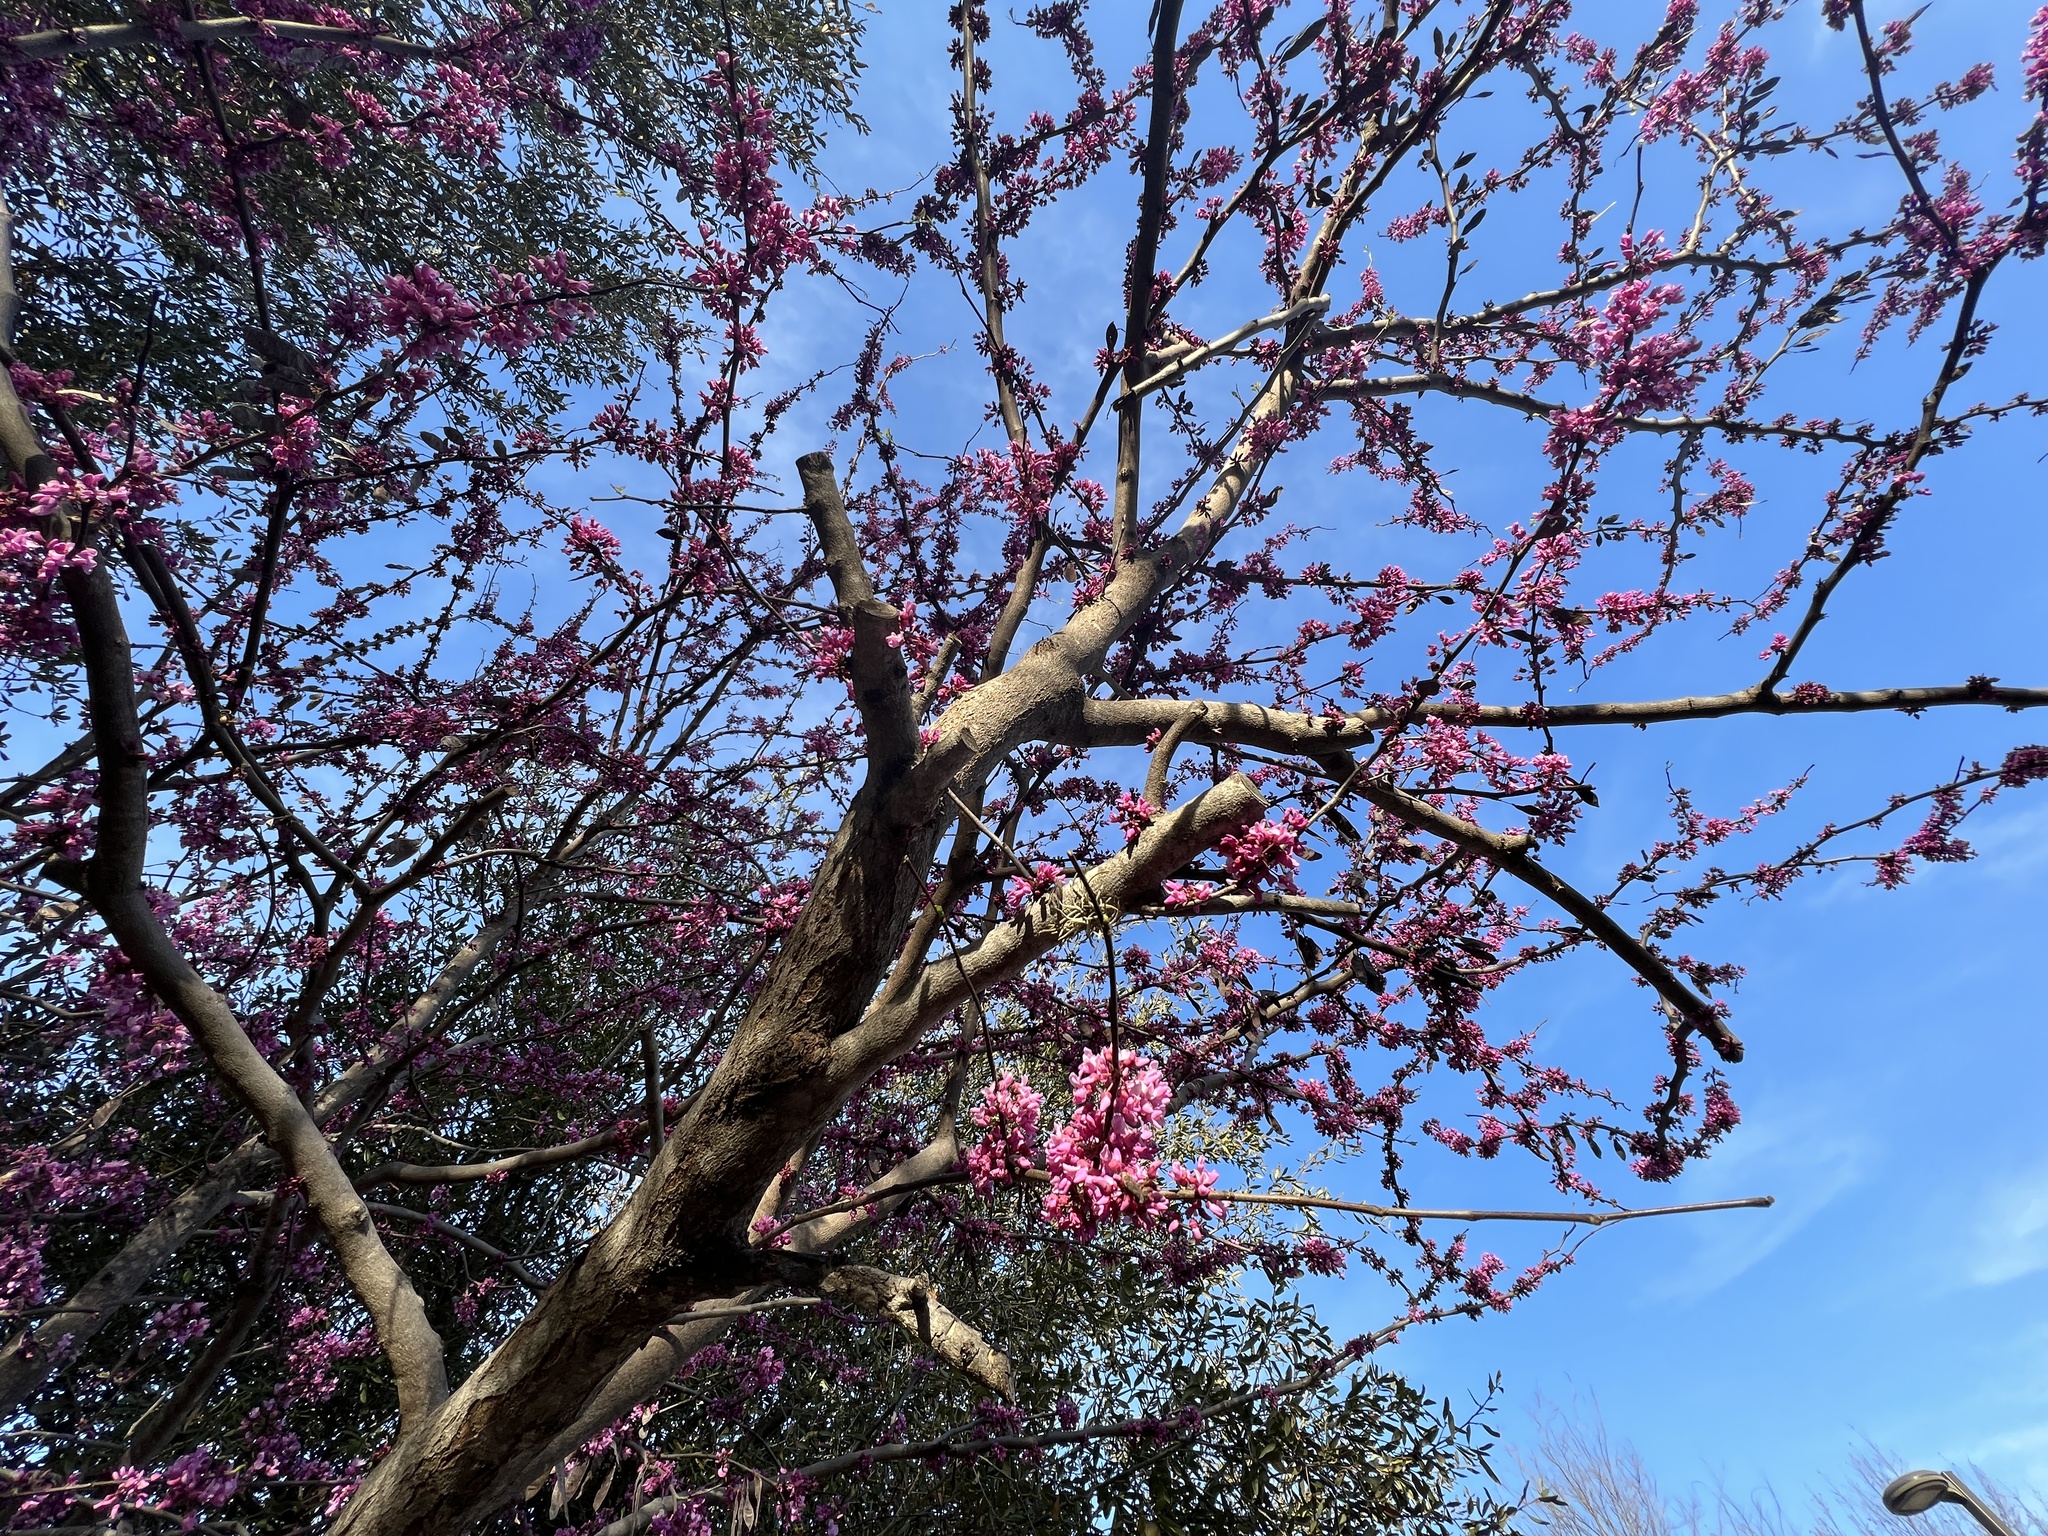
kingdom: Animalia
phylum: Arthropoda
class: Insecta
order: Hymenoptera
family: Megachilidae
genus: Osmia
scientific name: Osmia ribifloris
